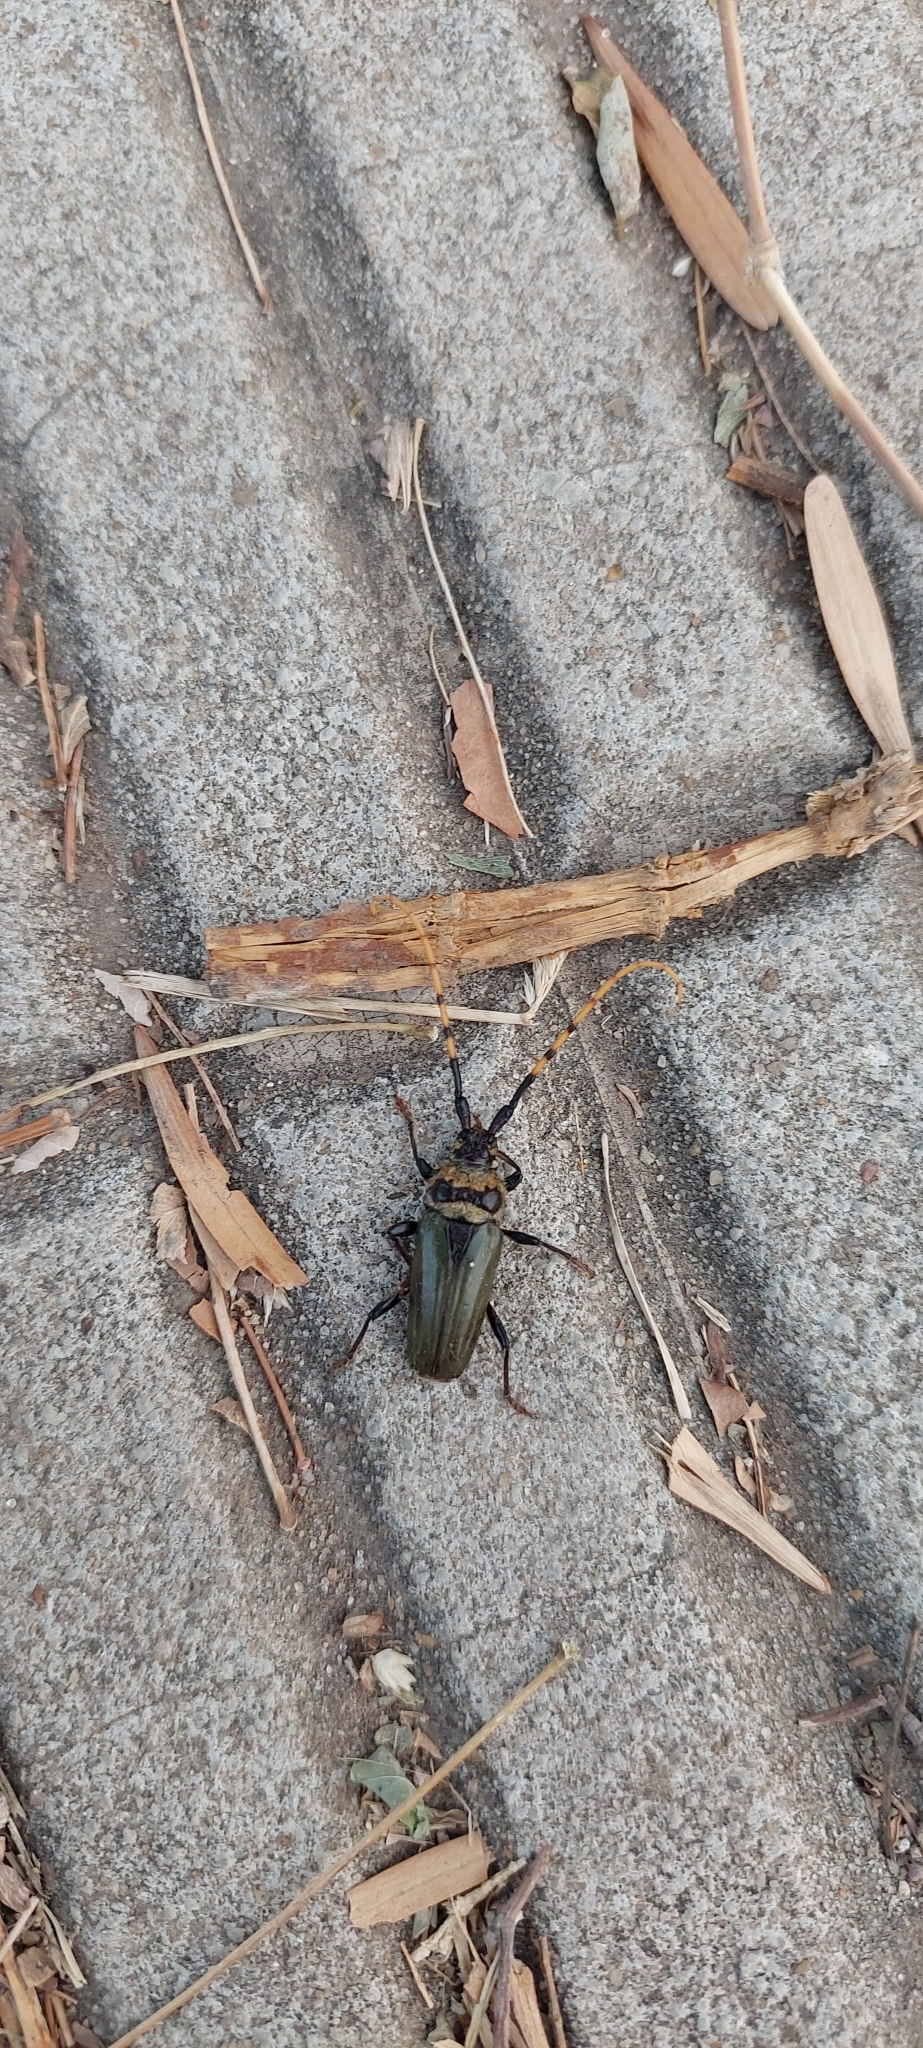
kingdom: Animalia
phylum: Arthropoda
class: Insecta
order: Coleoptera
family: Cerambycidae
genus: Retrachydes
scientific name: Retrachydes thoracicus
